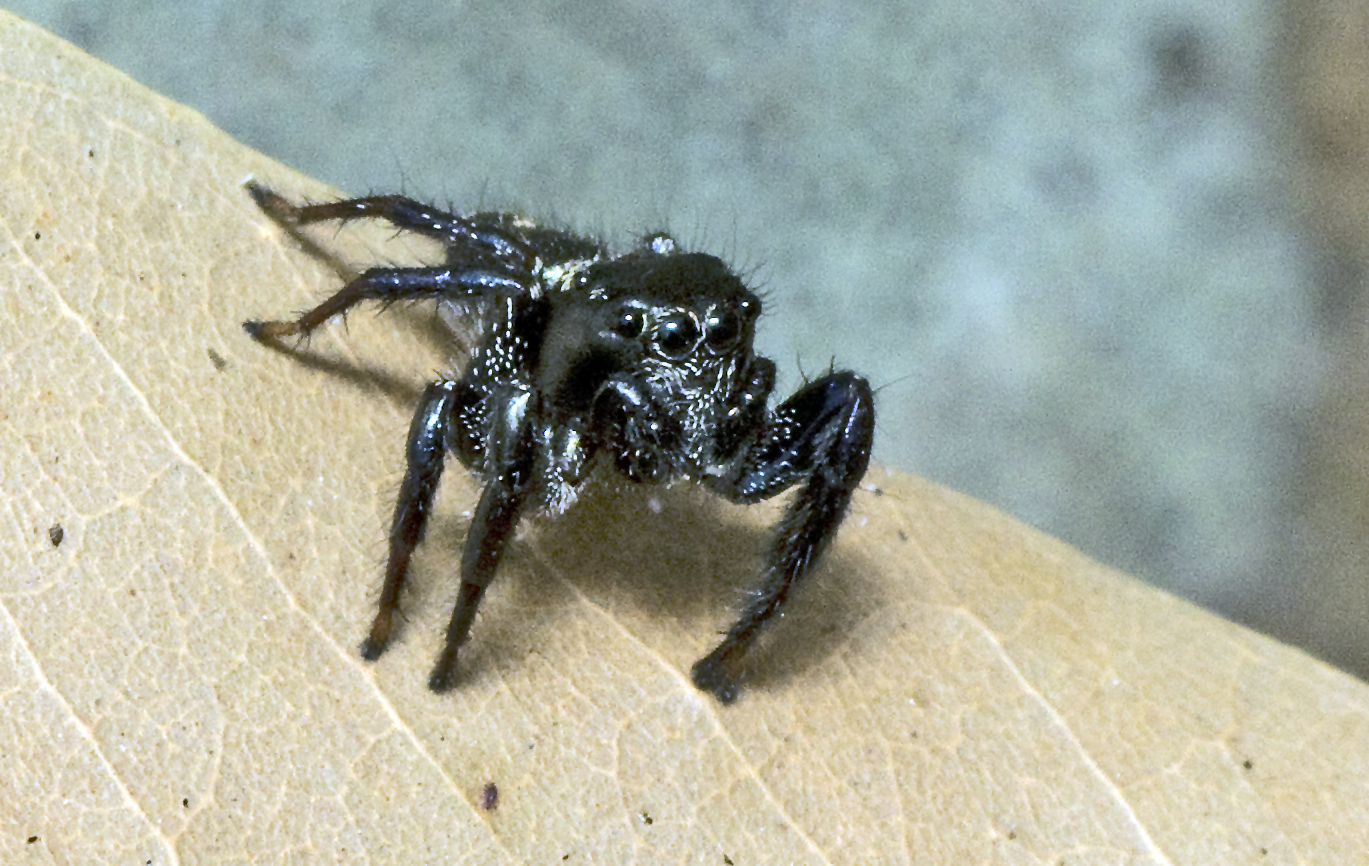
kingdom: Animalia
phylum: Arthropoda
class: Arachnida
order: Araneae
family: Salticidae
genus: Zenodorus
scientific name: Zenodorus orbiculatus
